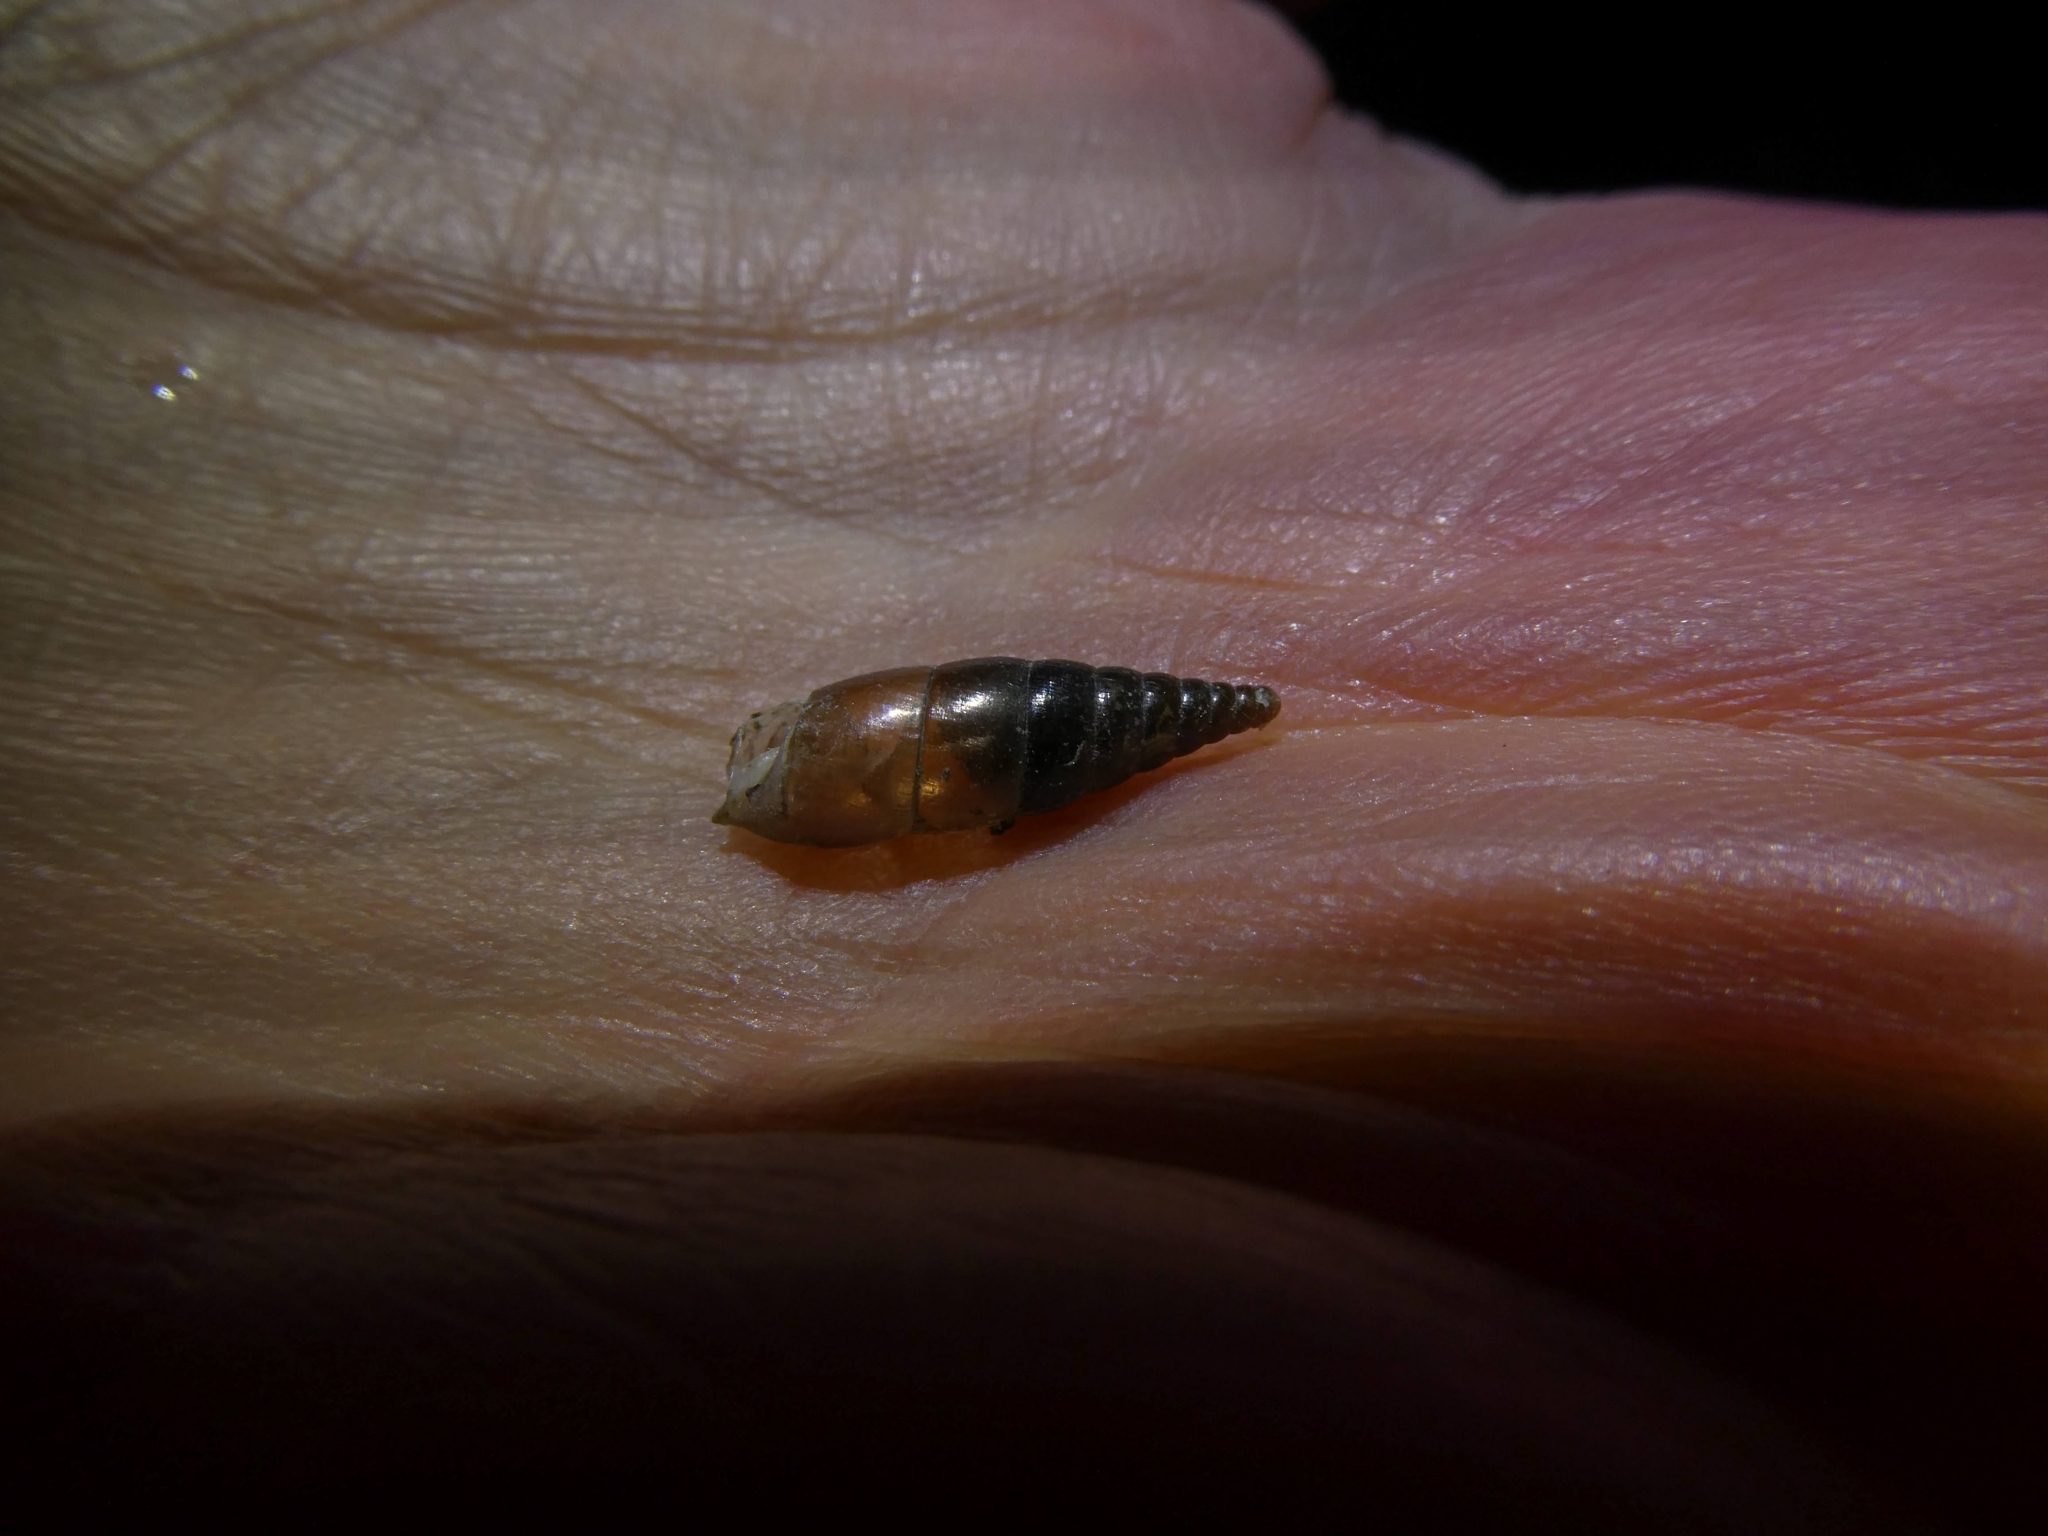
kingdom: Animalia
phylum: Mollusca
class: Gastropoda
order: Stylommatophora
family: Clausiliidae
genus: Cochlodina
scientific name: Cochlodina laminata
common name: Plaited door snail
